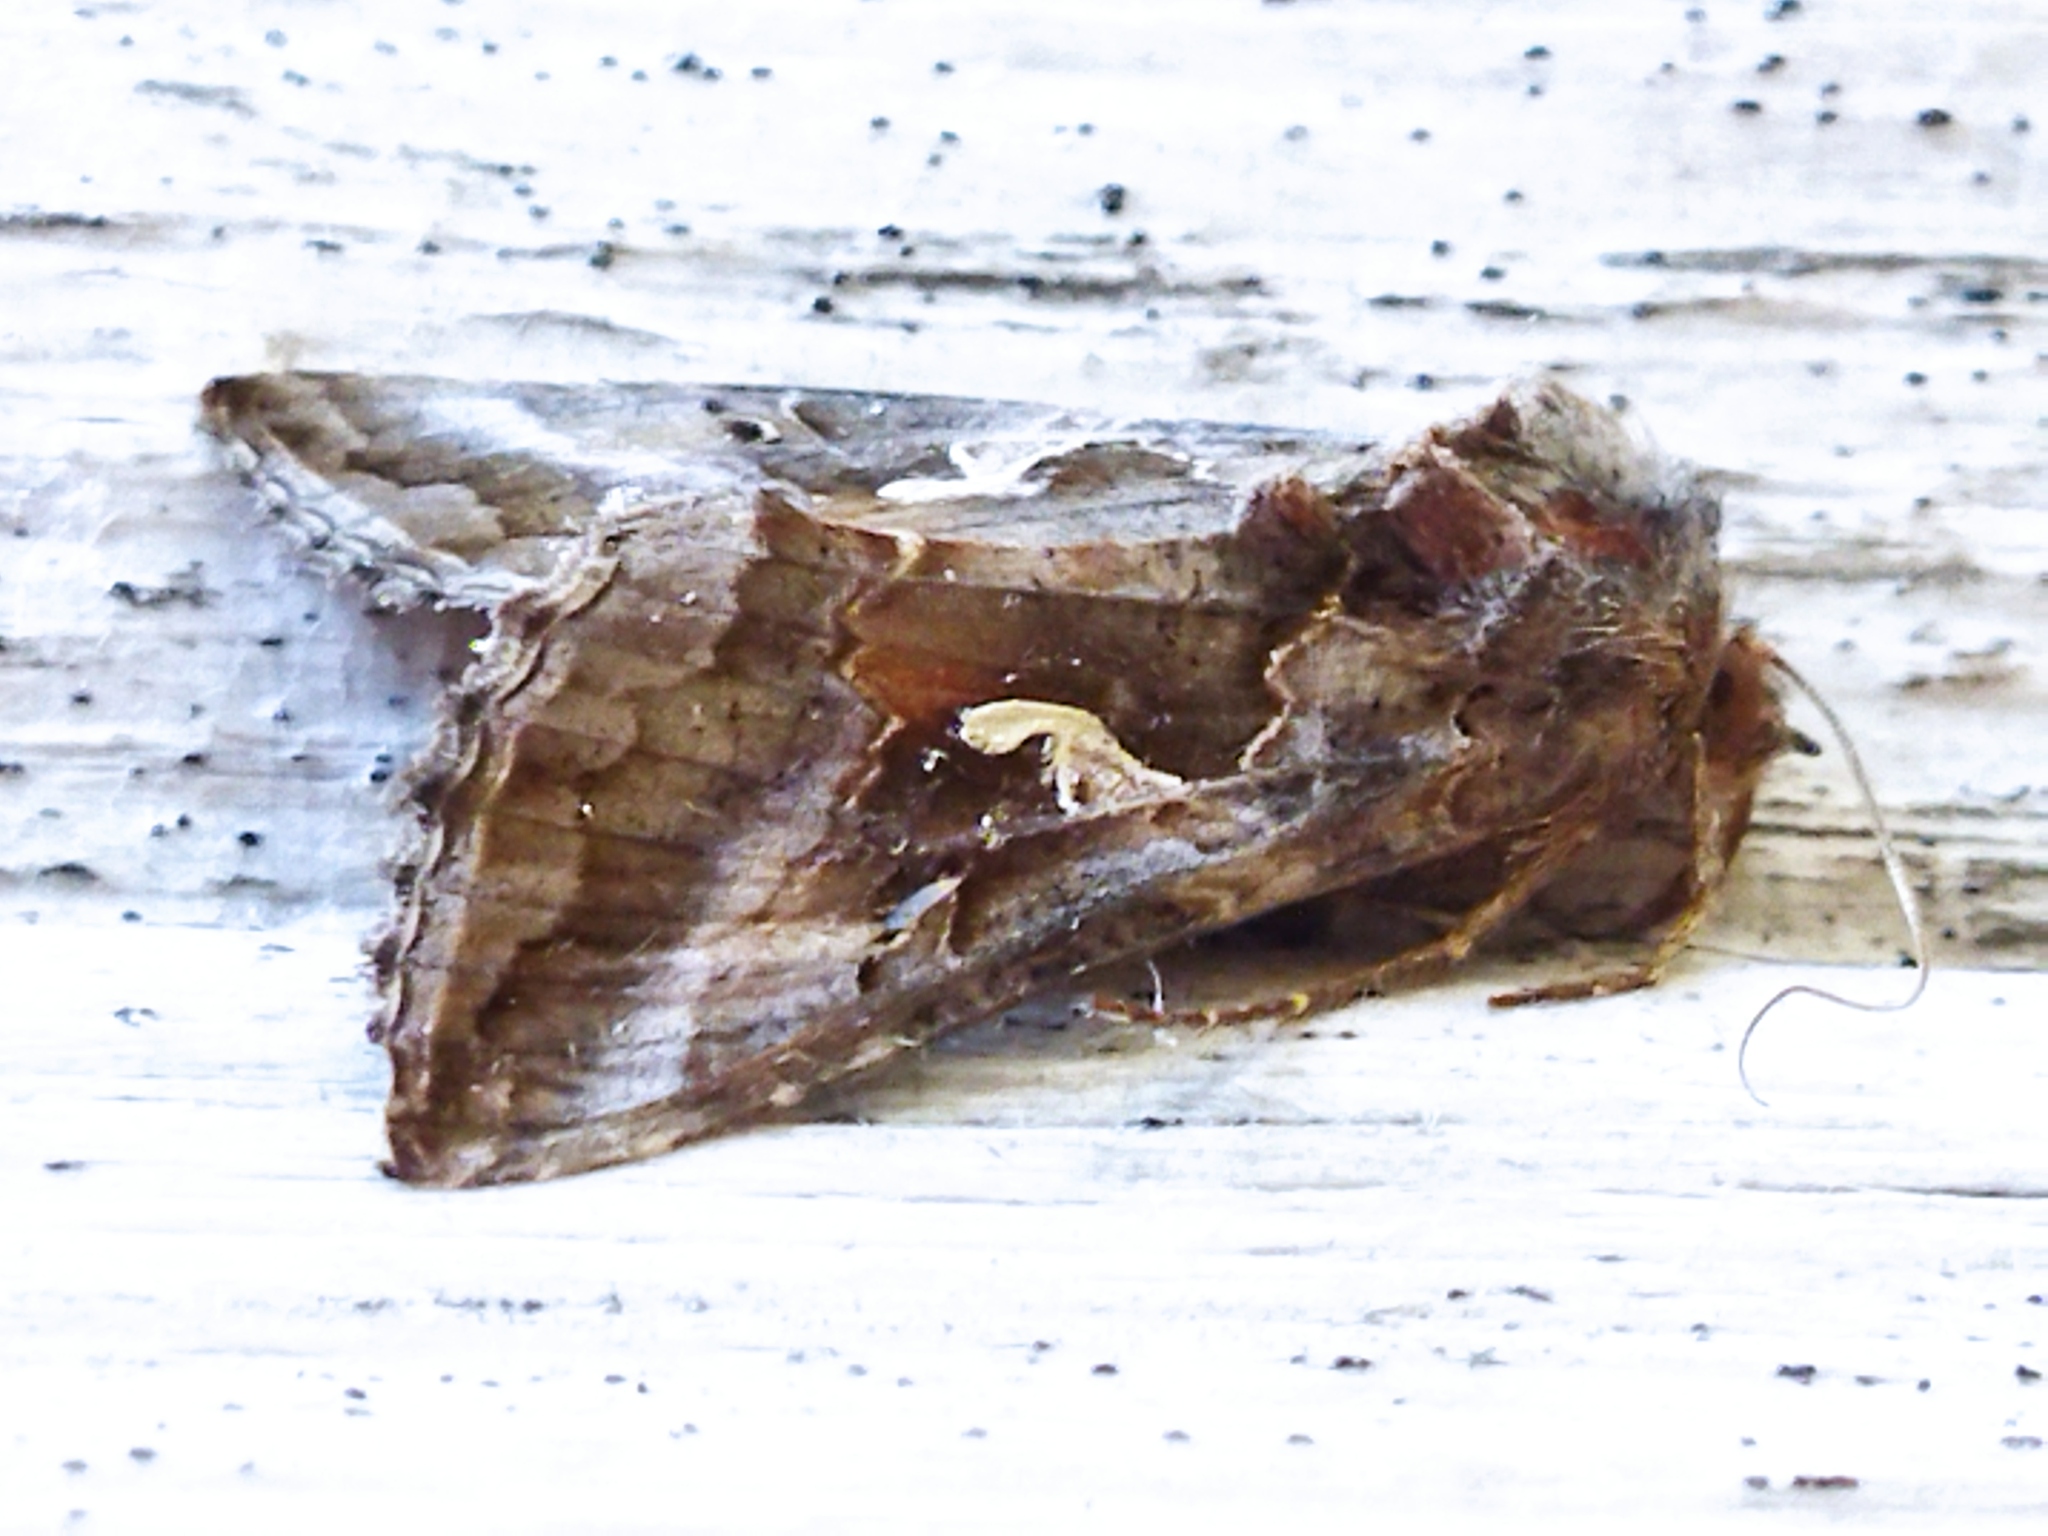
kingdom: Animalia
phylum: Arthropoda
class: Insecta
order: Lepidoptera
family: Noctuidae
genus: Autographa
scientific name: Autographa gamma
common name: Silver y
